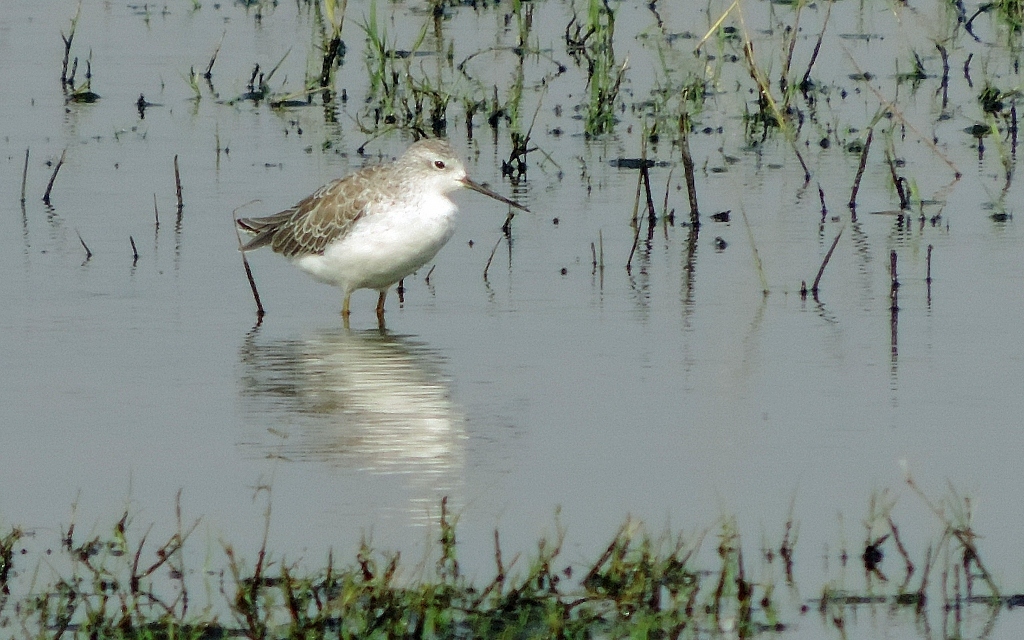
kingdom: Animalia
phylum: Chordata
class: Aves
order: Charadriiformes
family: Scolopacidae
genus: Tringa
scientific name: Tringa stagnatilis
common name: Marsh sandpiper
